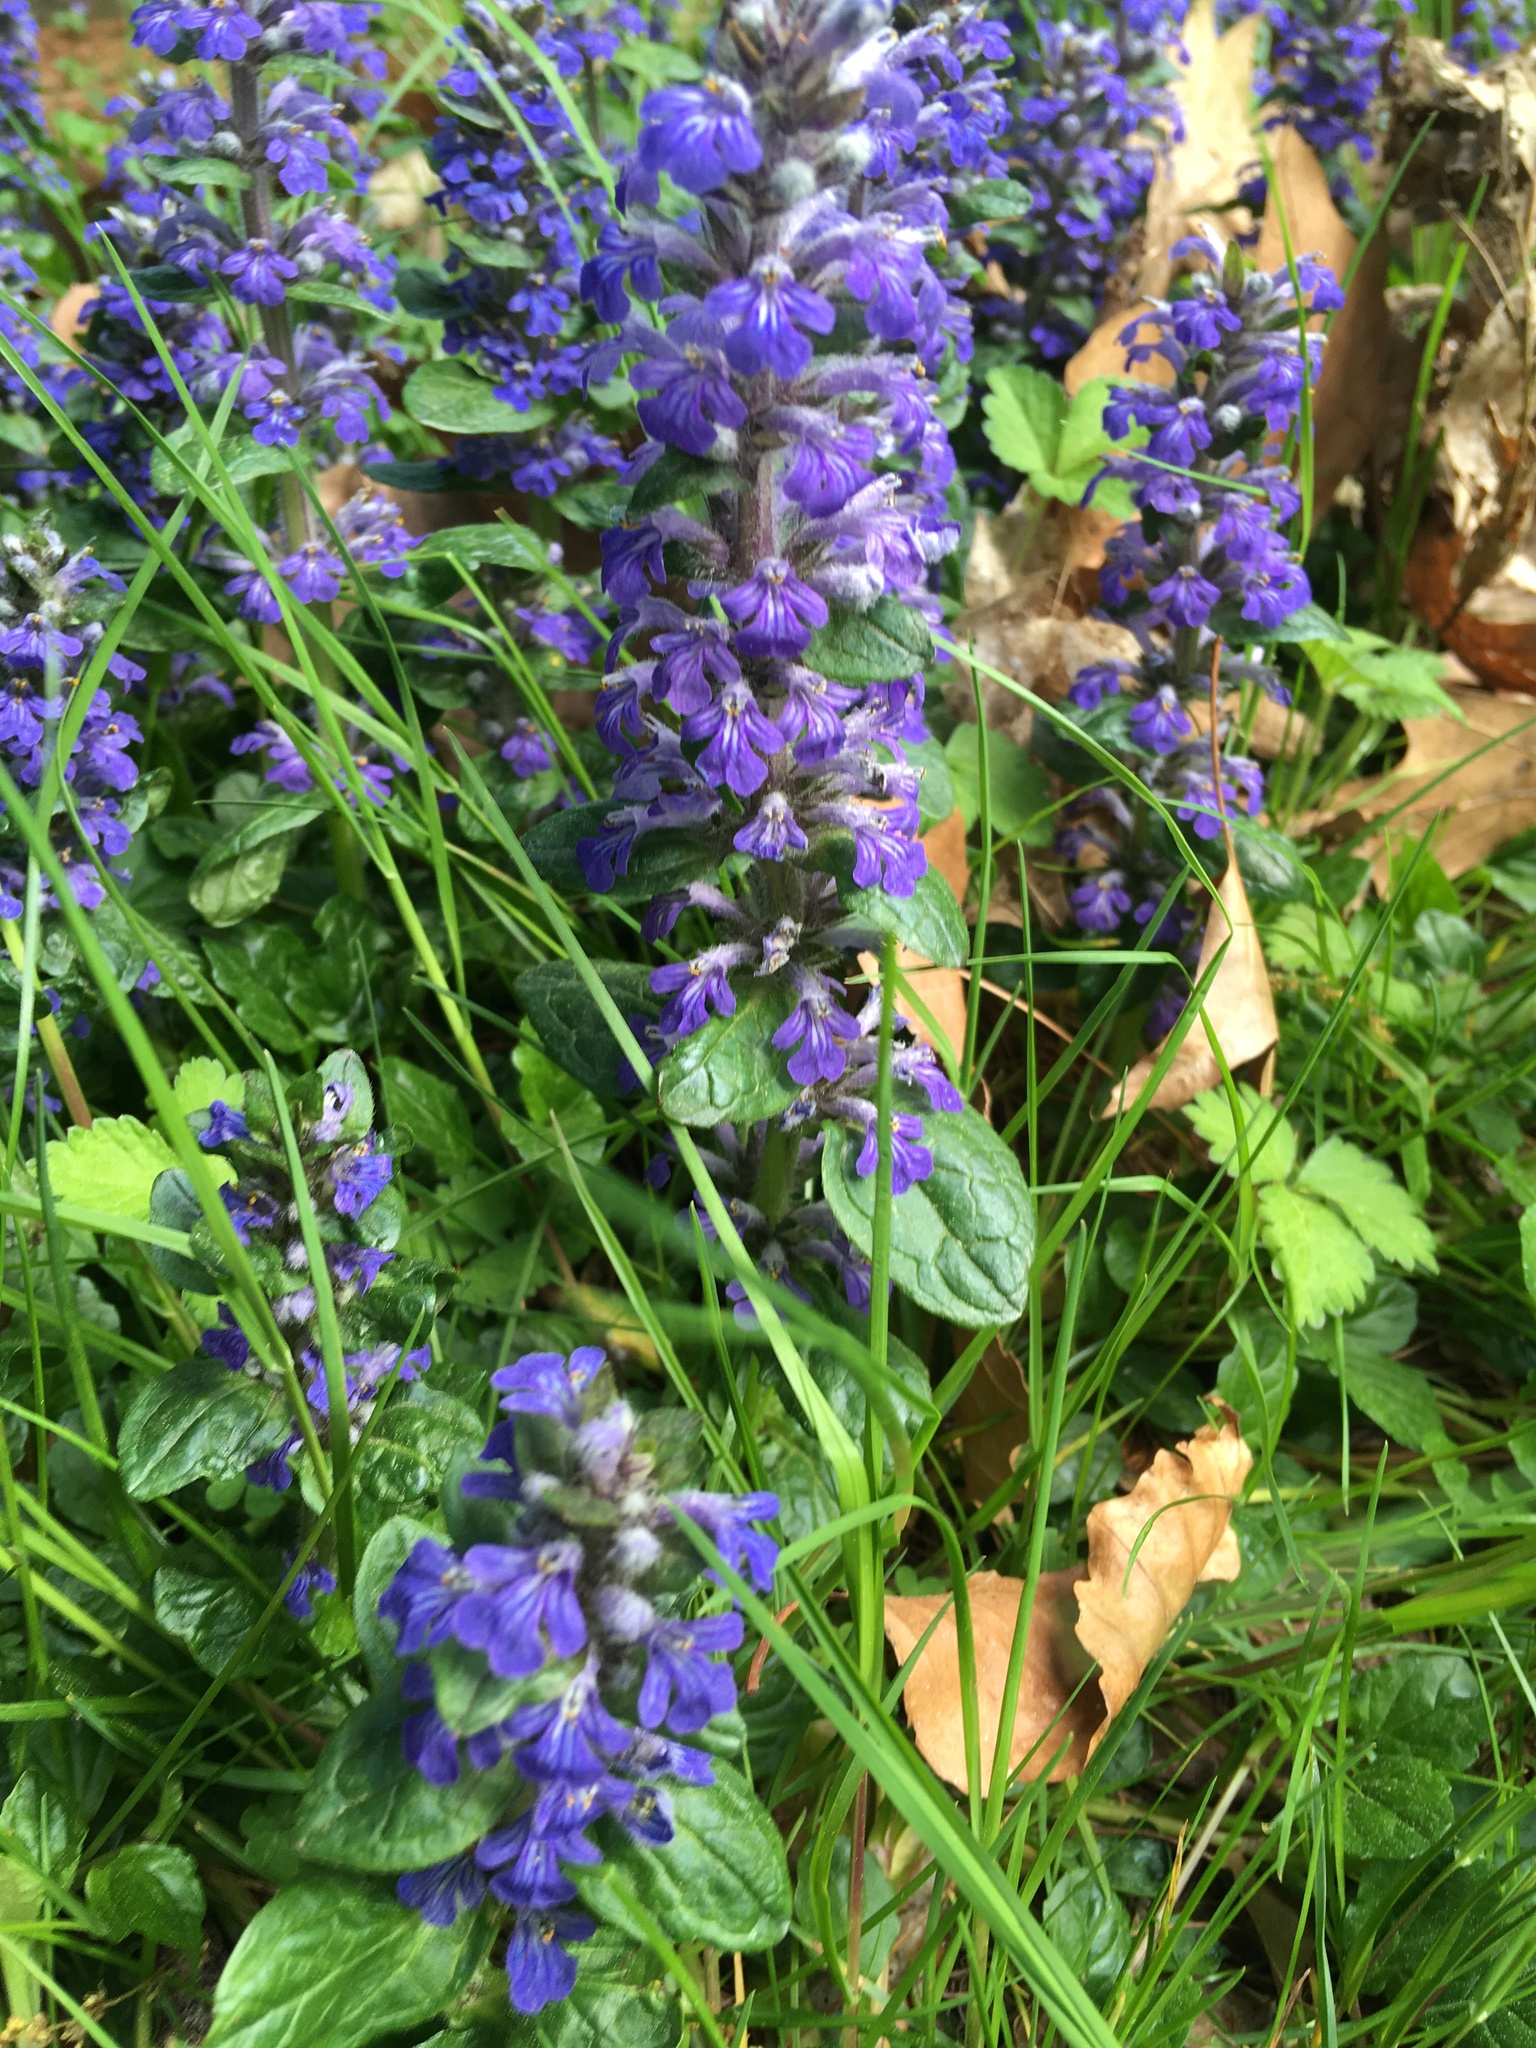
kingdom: Plantae
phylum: Tracheophyta
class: Magnoliopsida
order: Lamiales
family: Lamiaceae
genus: Ajuga
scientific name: Ajuga reptans
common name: Bugle
